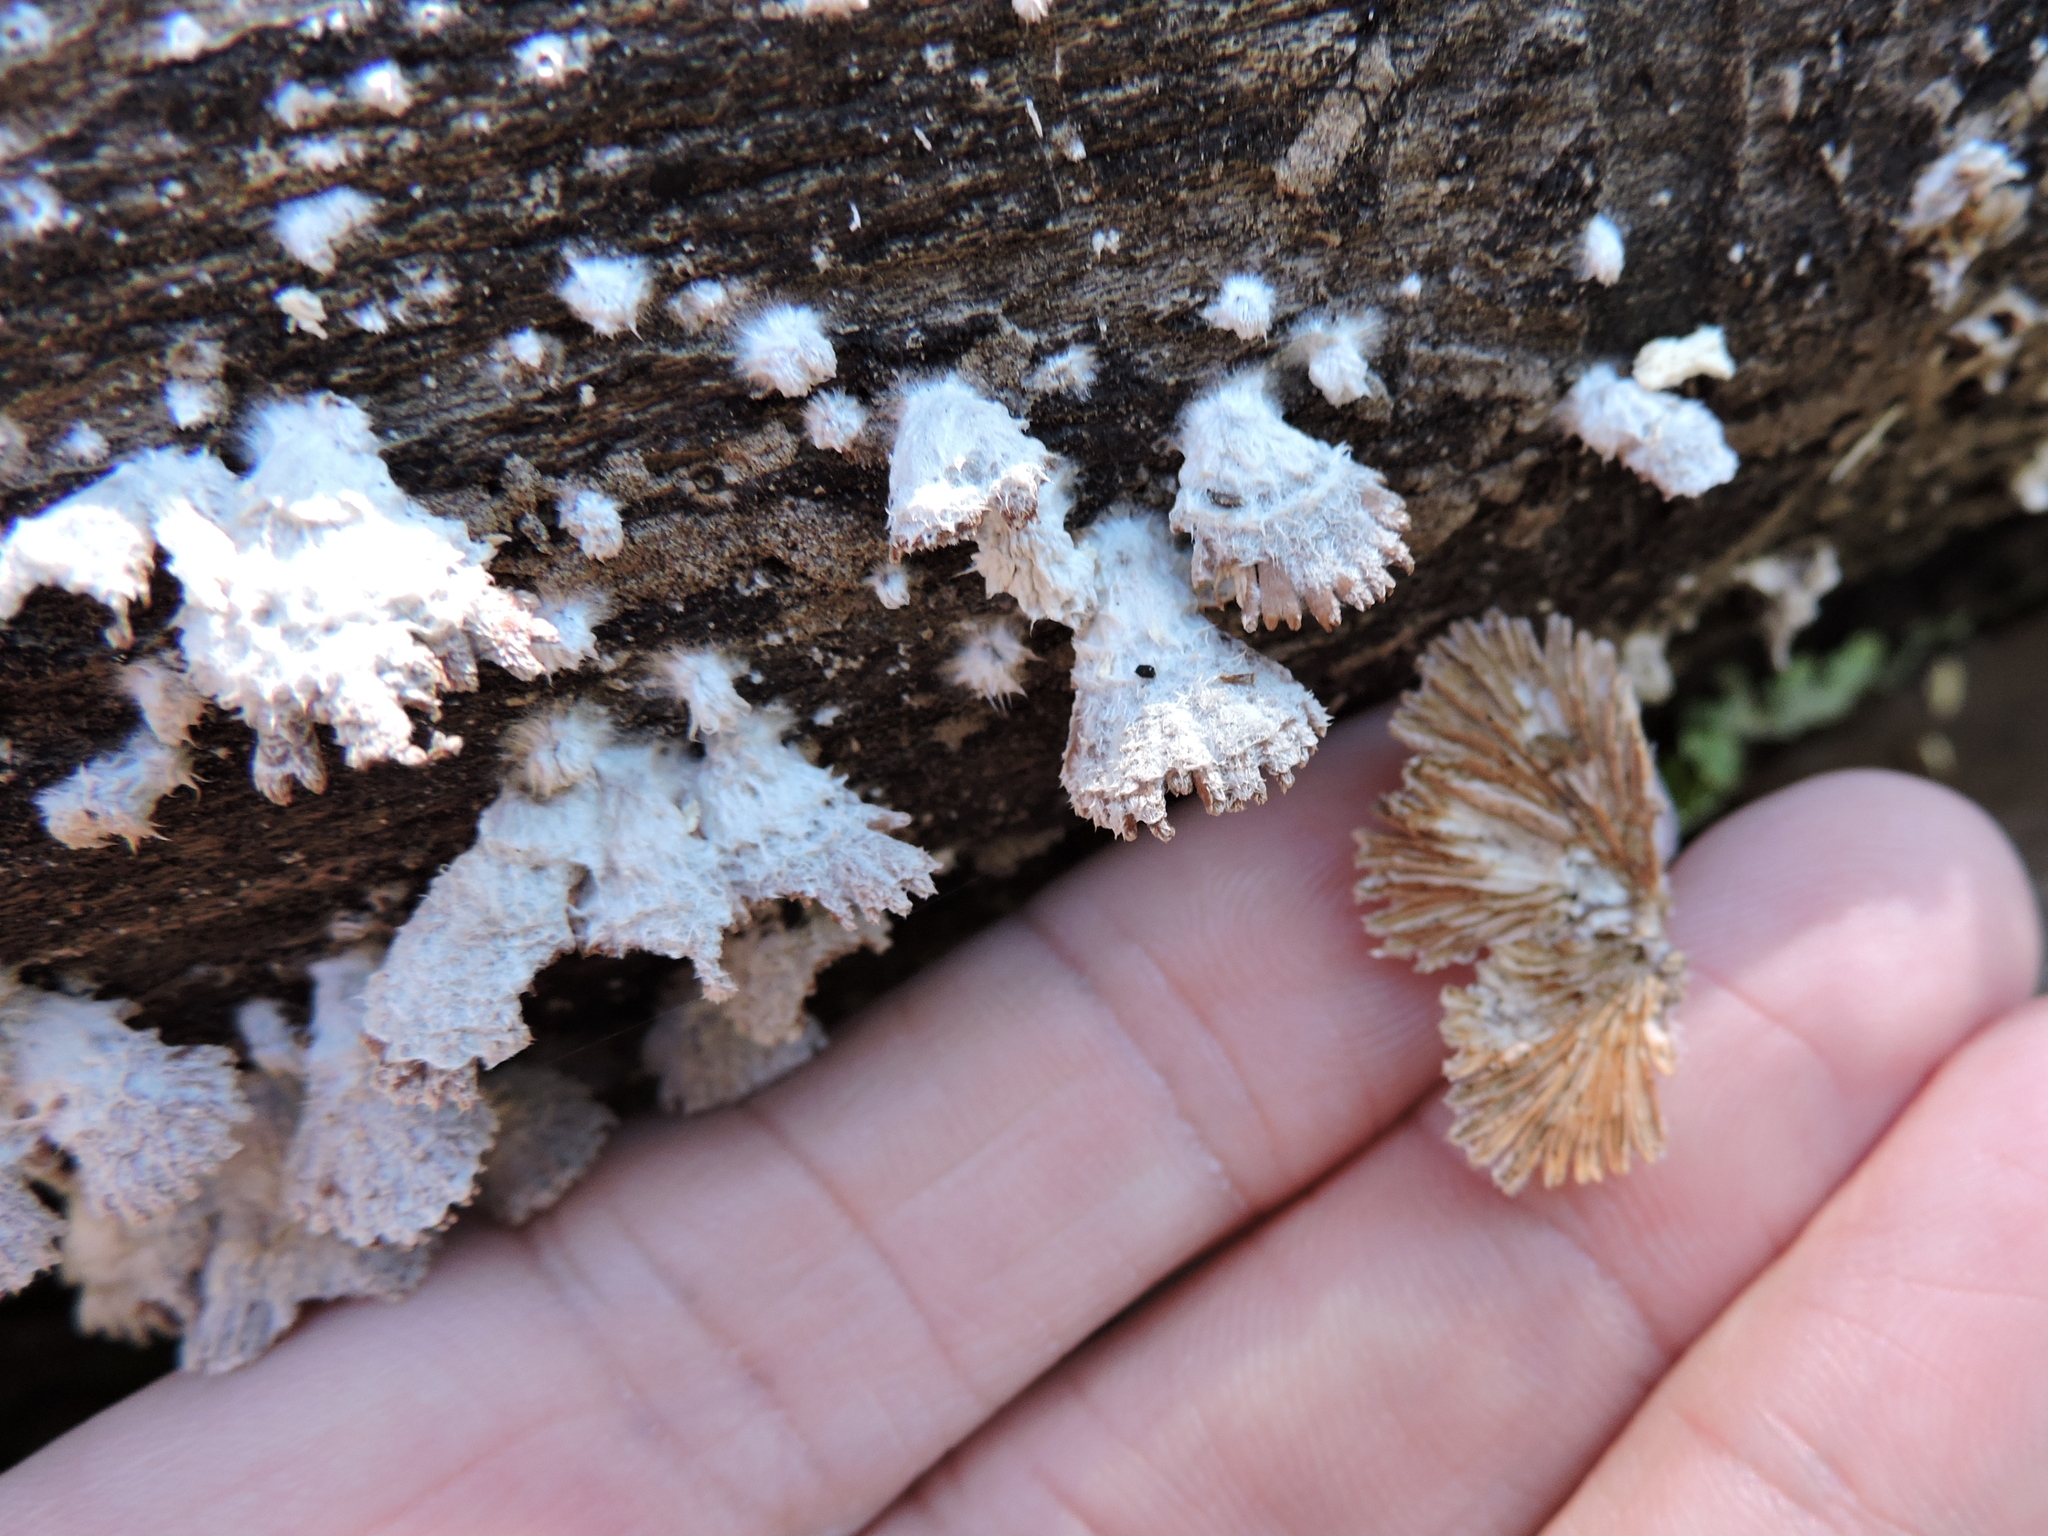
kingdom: Fungi
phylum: Basidiomycota
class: Agaricomycetes
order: Agaricales
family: Schizophyllaceae
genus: Schizophyllum
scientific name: Schizophyllum commune
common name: Common porecrust
